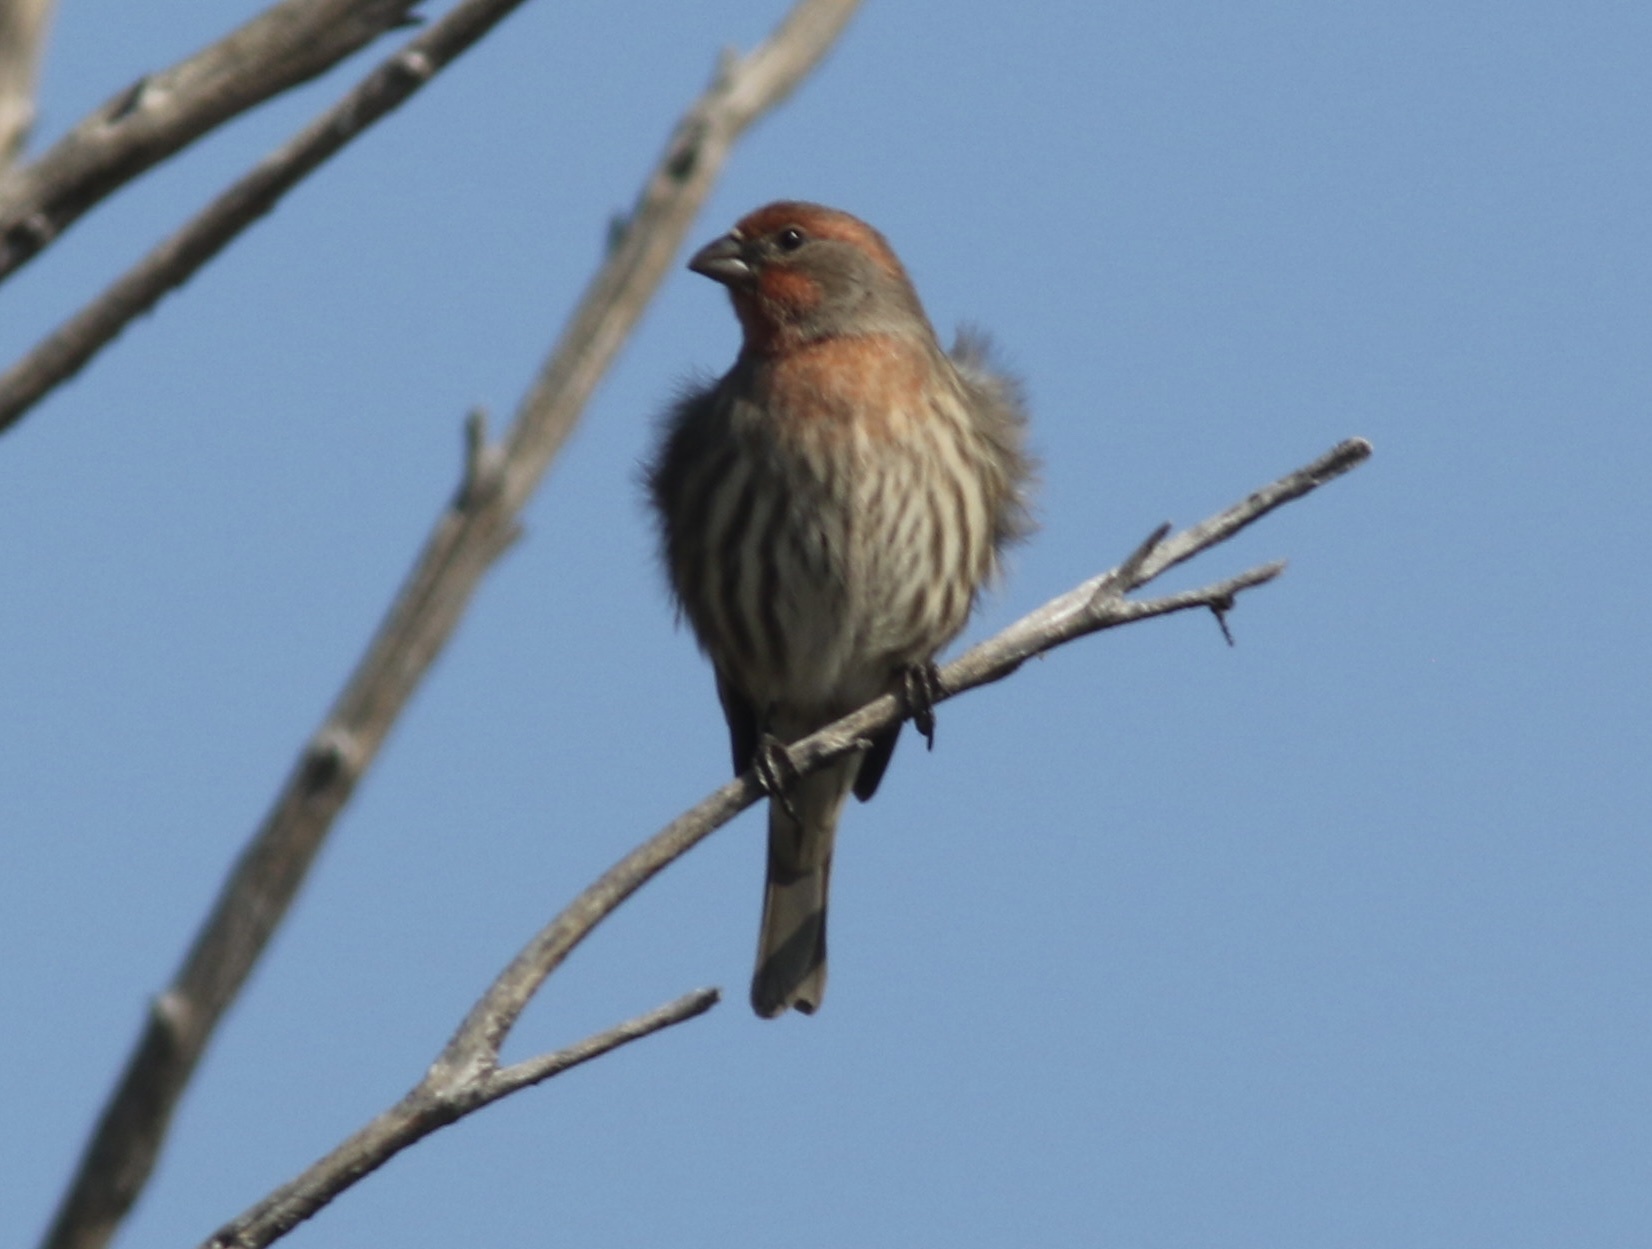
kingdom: Animalia
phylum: Chordata
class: Aves
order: Passeriformes
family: Fringillidae
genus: Haemorhous
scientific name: Haemorhous mexicanus
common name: House finch
